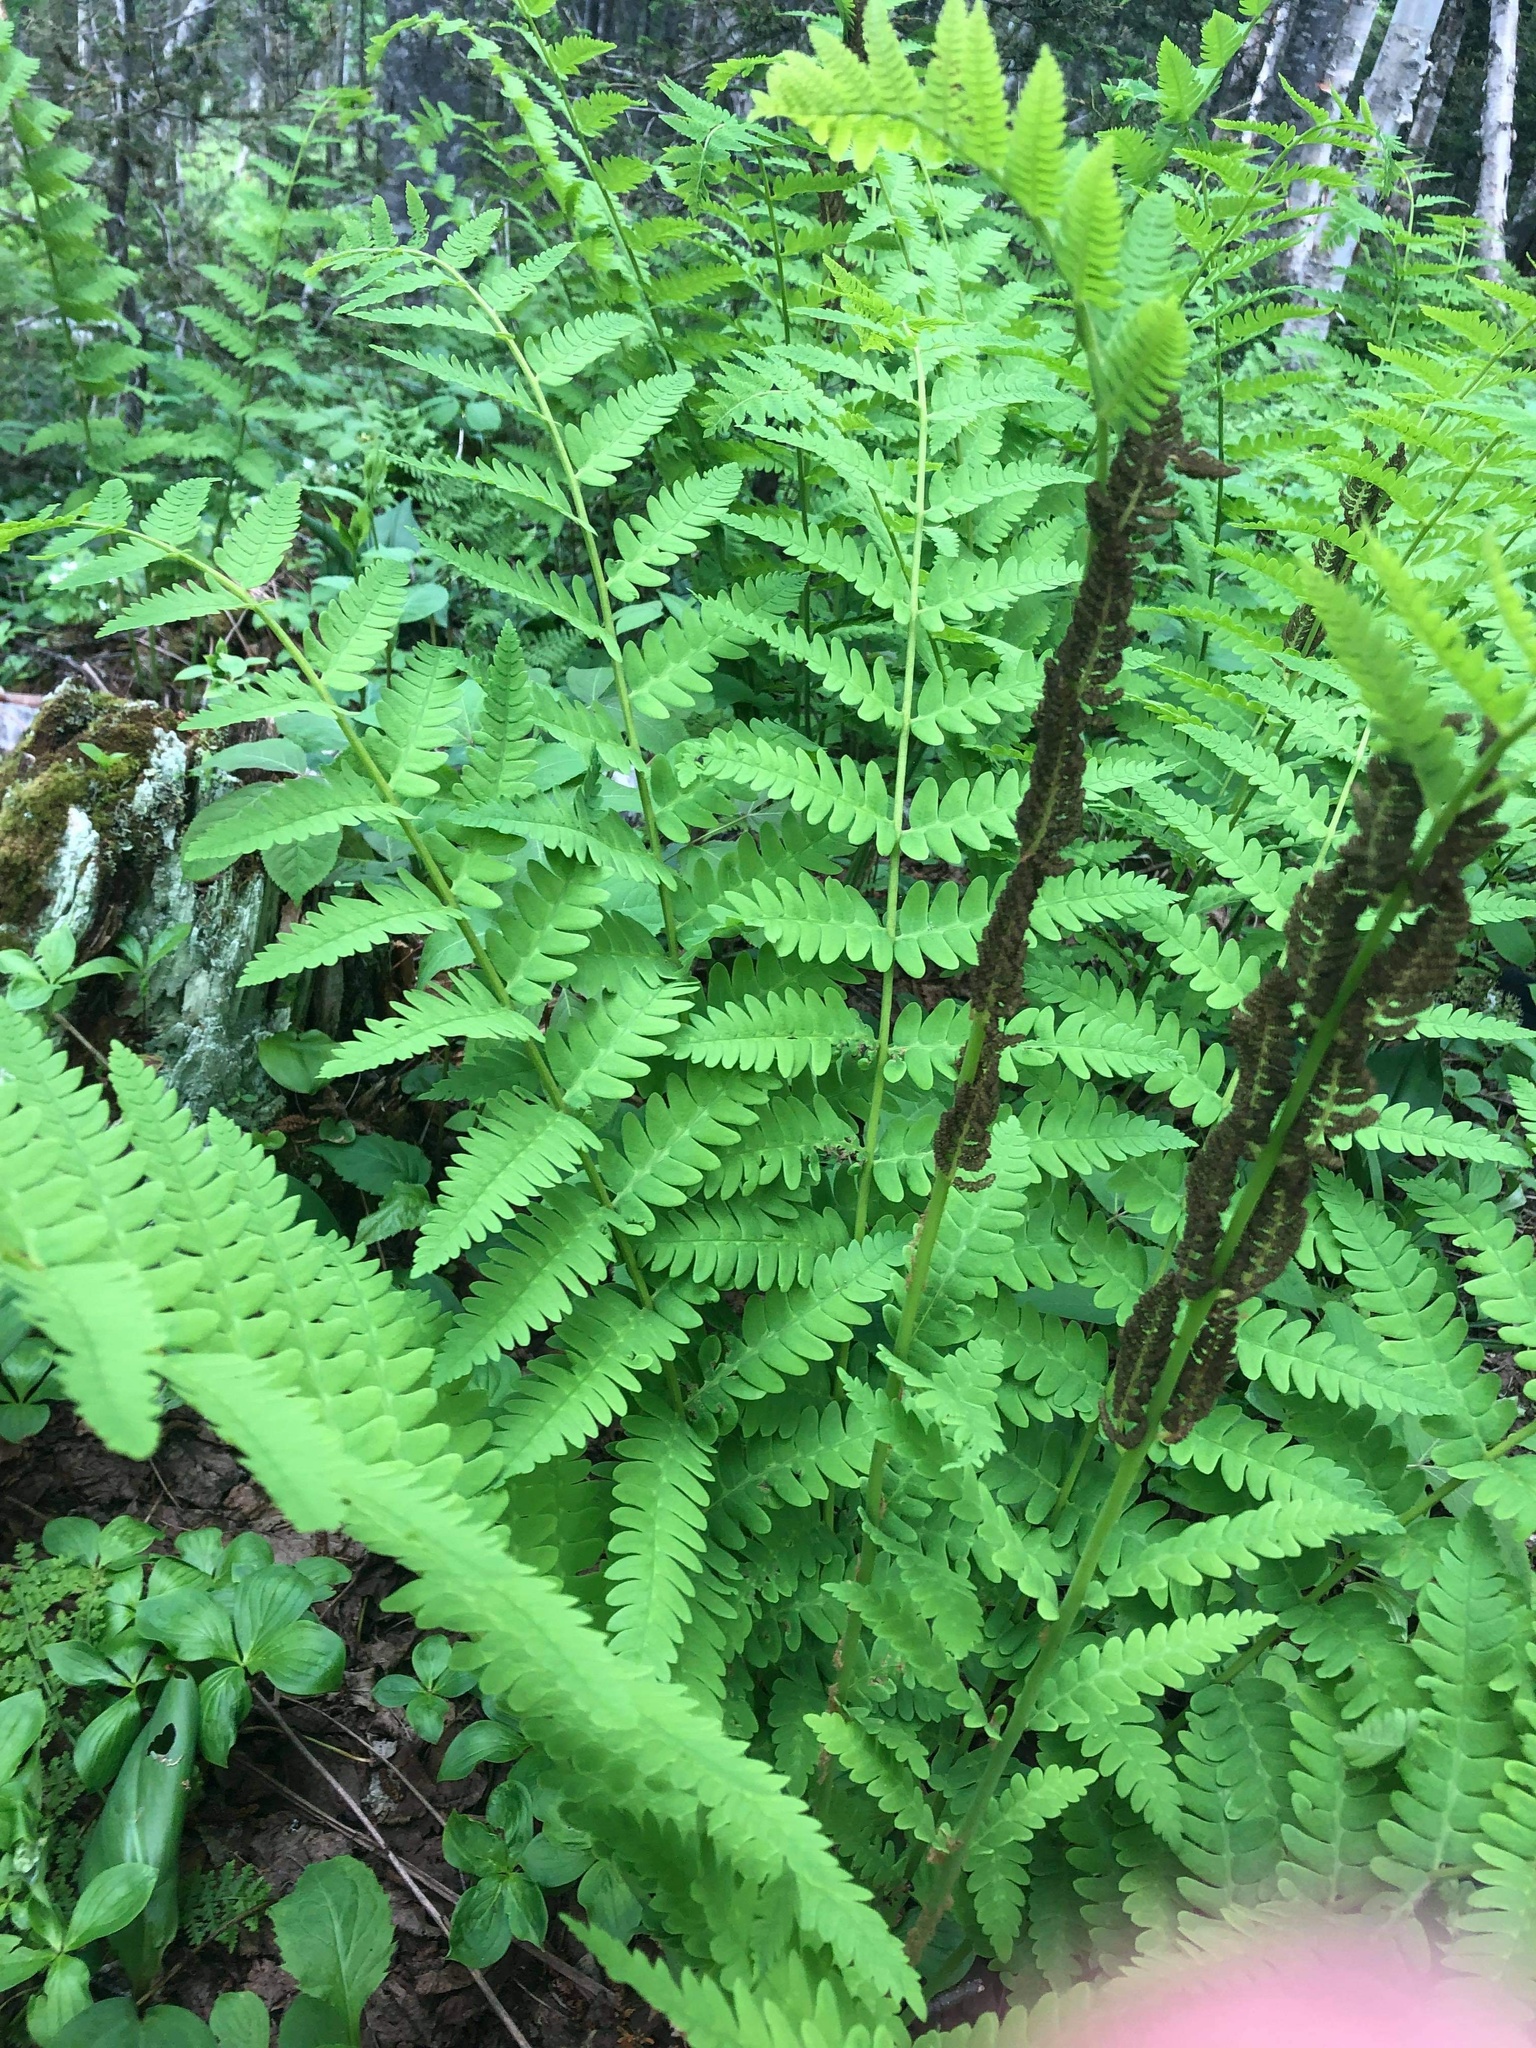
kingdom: Plantae
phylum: Tracheophyta
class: Polypodiopsida
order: Osmundales
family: Osmundaceae
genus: Claytosmunda
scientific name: Claytosmunda claytoniana
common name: Clayton's fern
